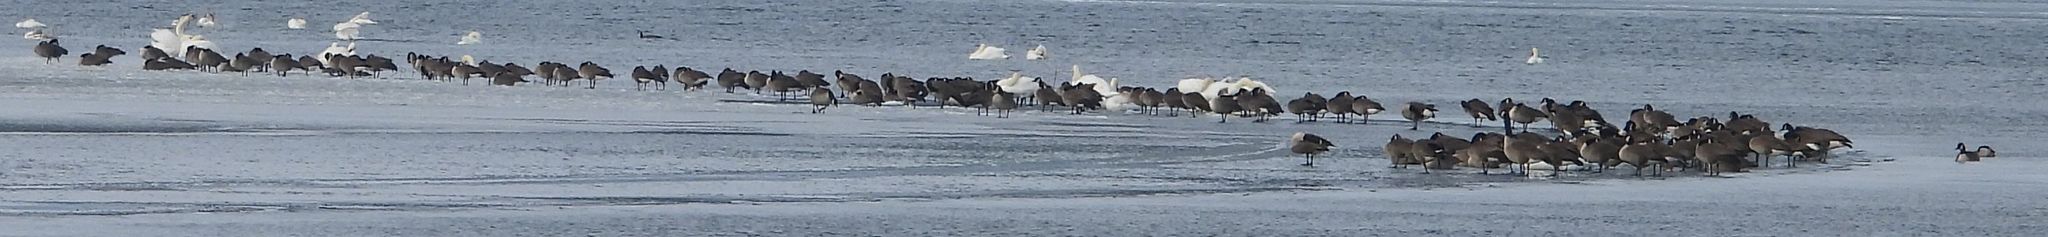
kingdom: Animalia
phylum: Chordata
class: Aves
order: Anseriformes
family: Anatidae
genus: Branta
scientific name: Branta canadensis
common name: Canada goose
